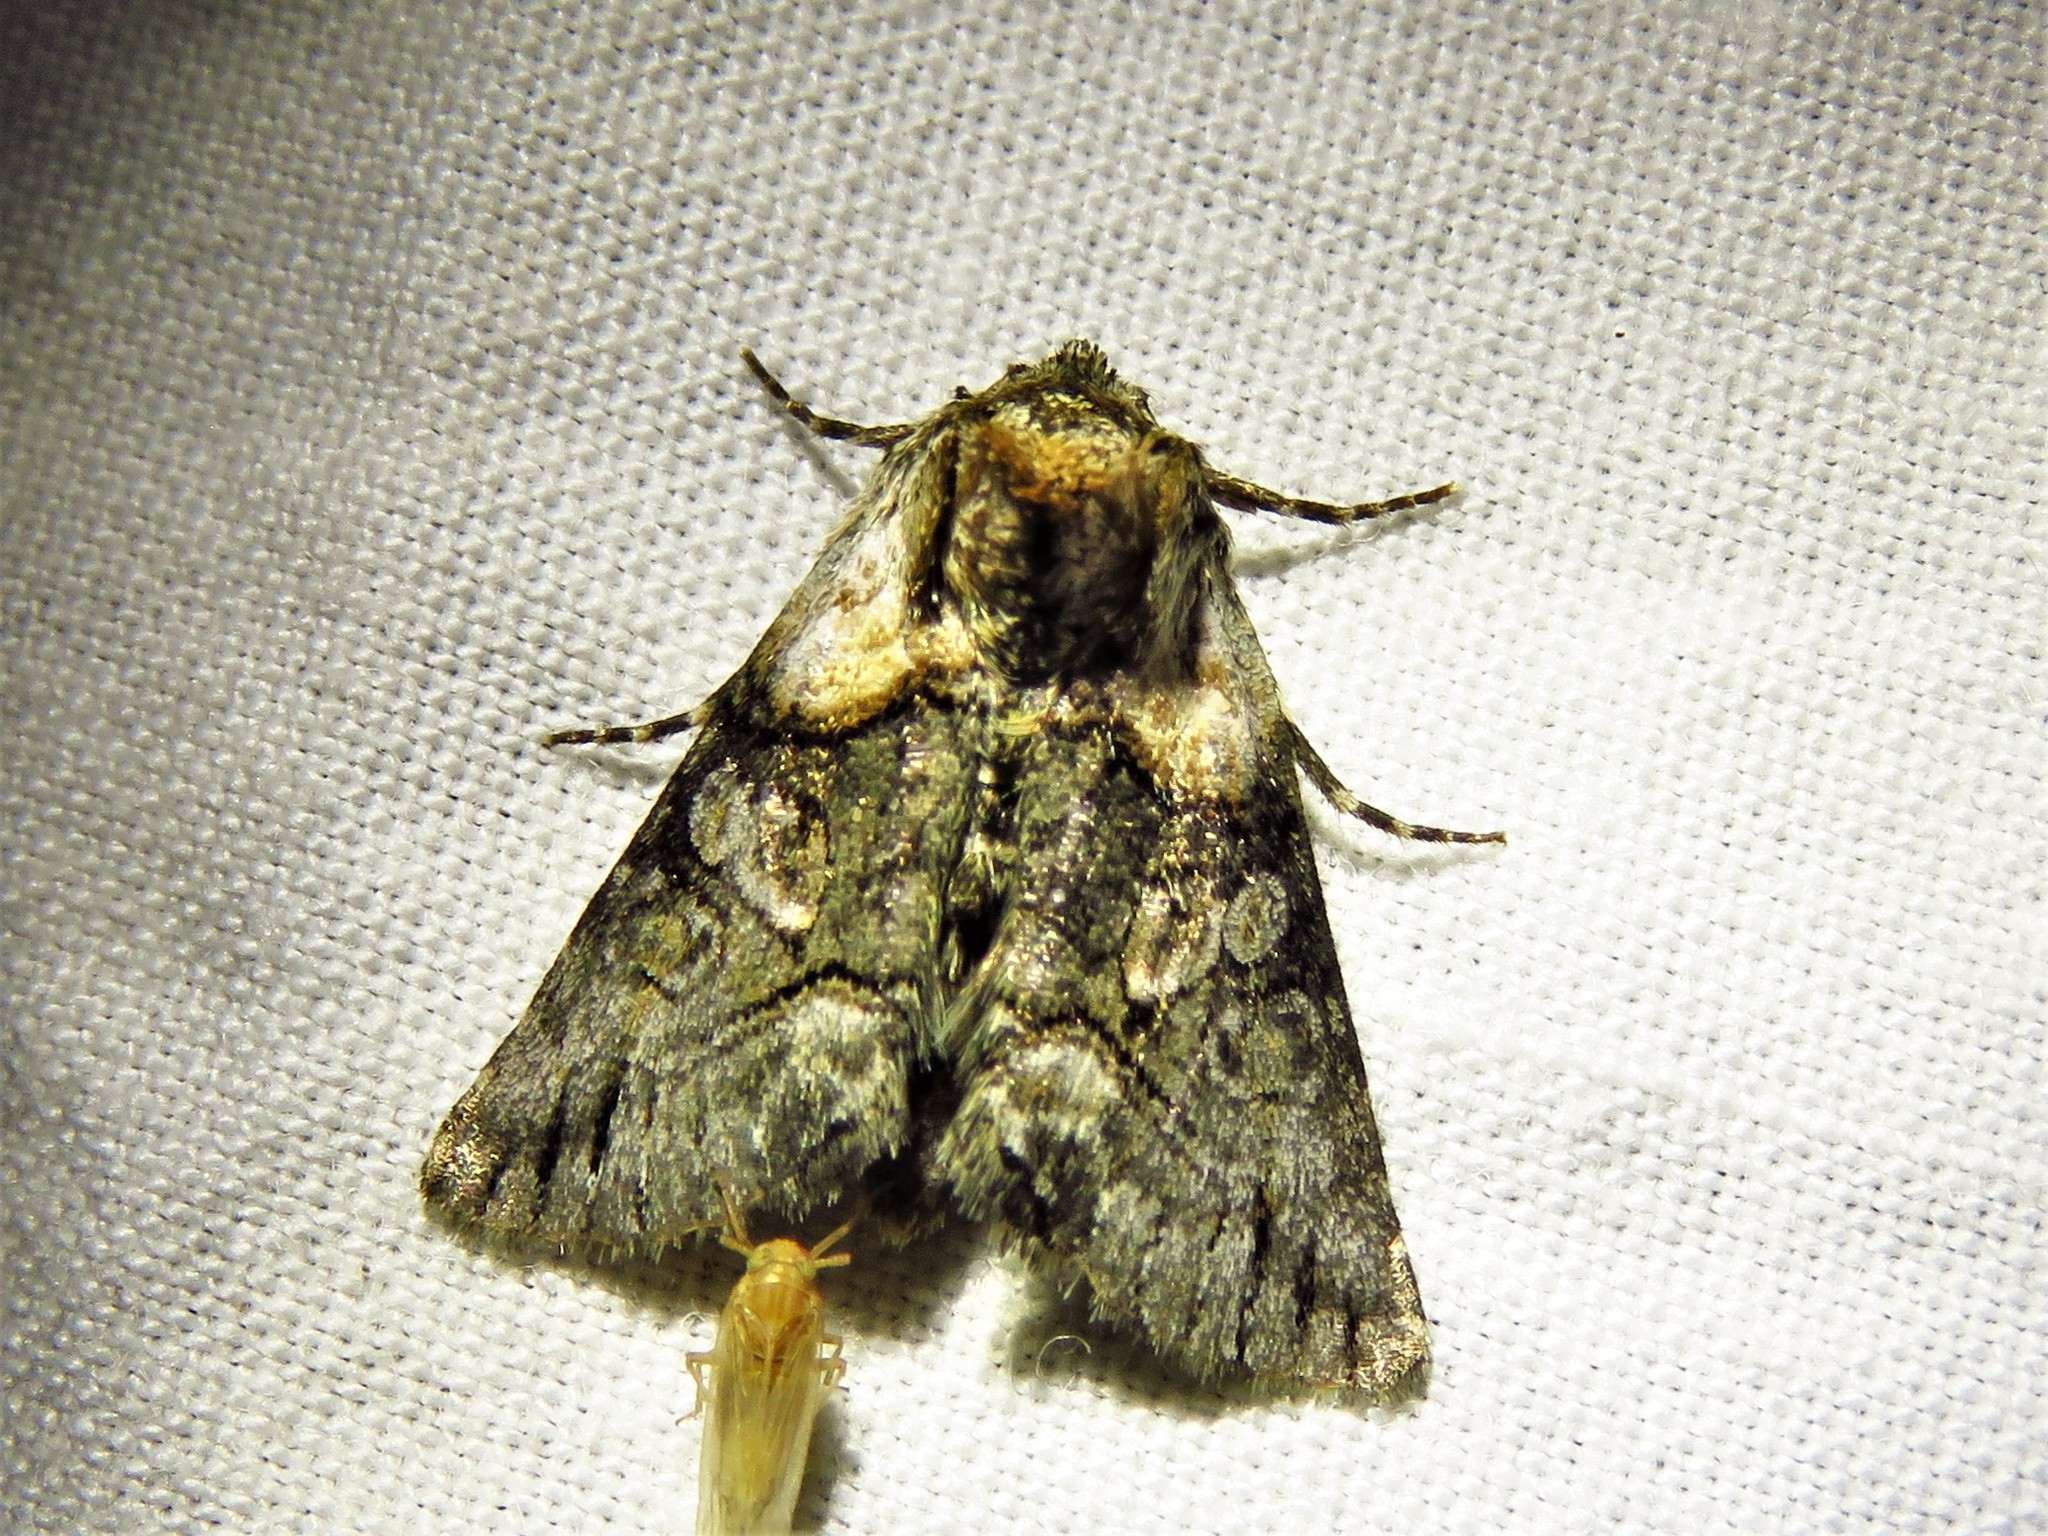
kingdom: Animalia
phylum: Arthropoda
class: Insecta
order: Lepidoptera
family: Noctuidae
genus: Abrostola
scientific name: Abrostola microvalis
